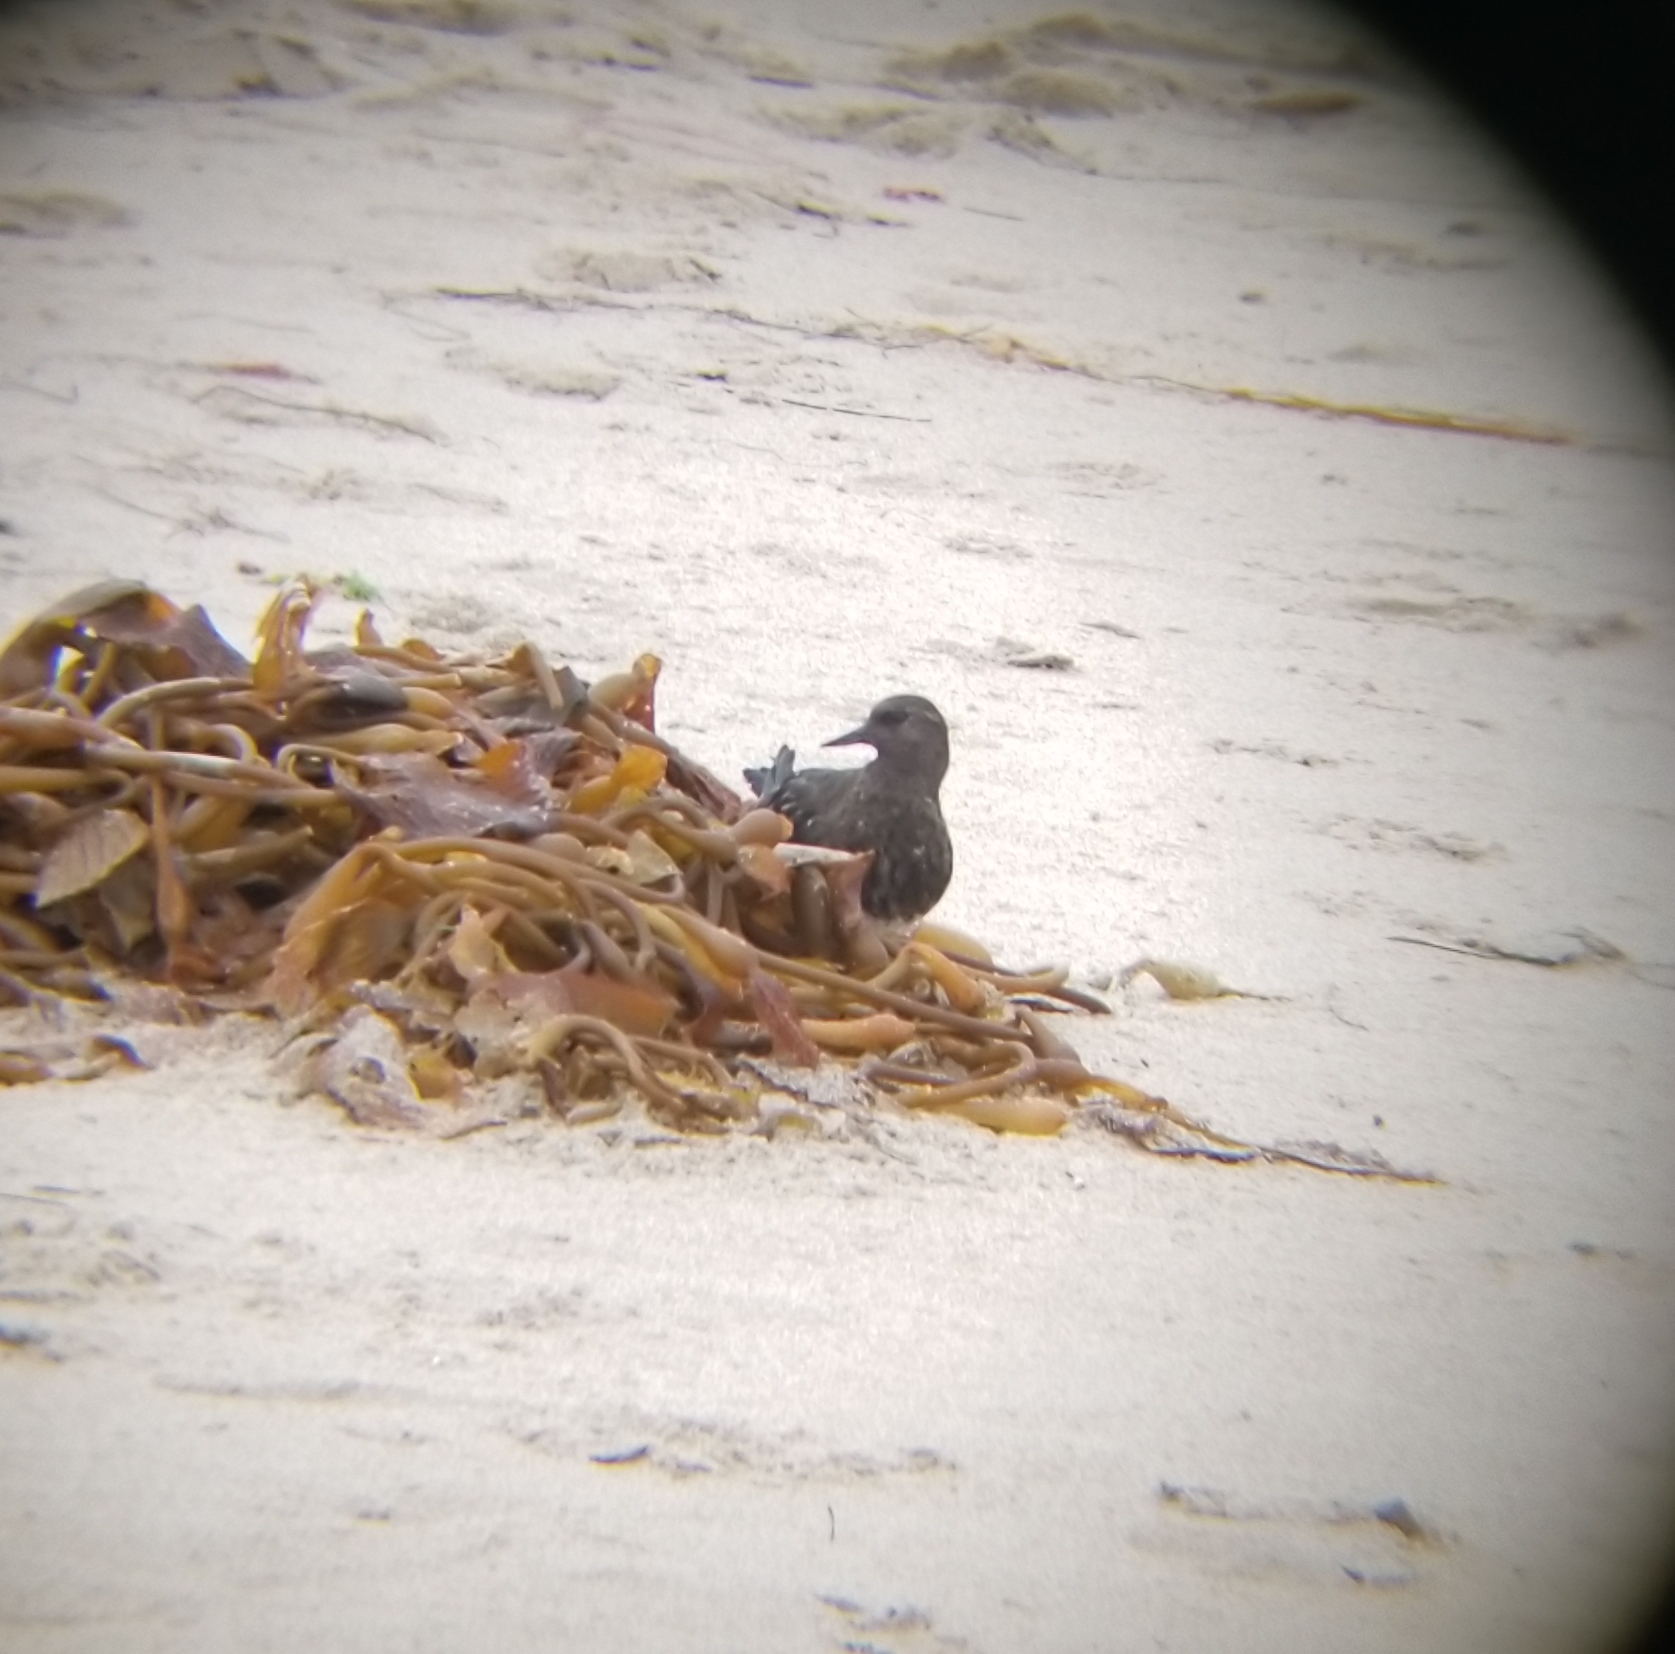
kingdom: Animalia
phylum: Chordata
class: Aves
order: Charadriiformes
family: Scolopacidae
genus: Arenaria
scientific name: Arenaria melanocephala
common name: Black turnstone
